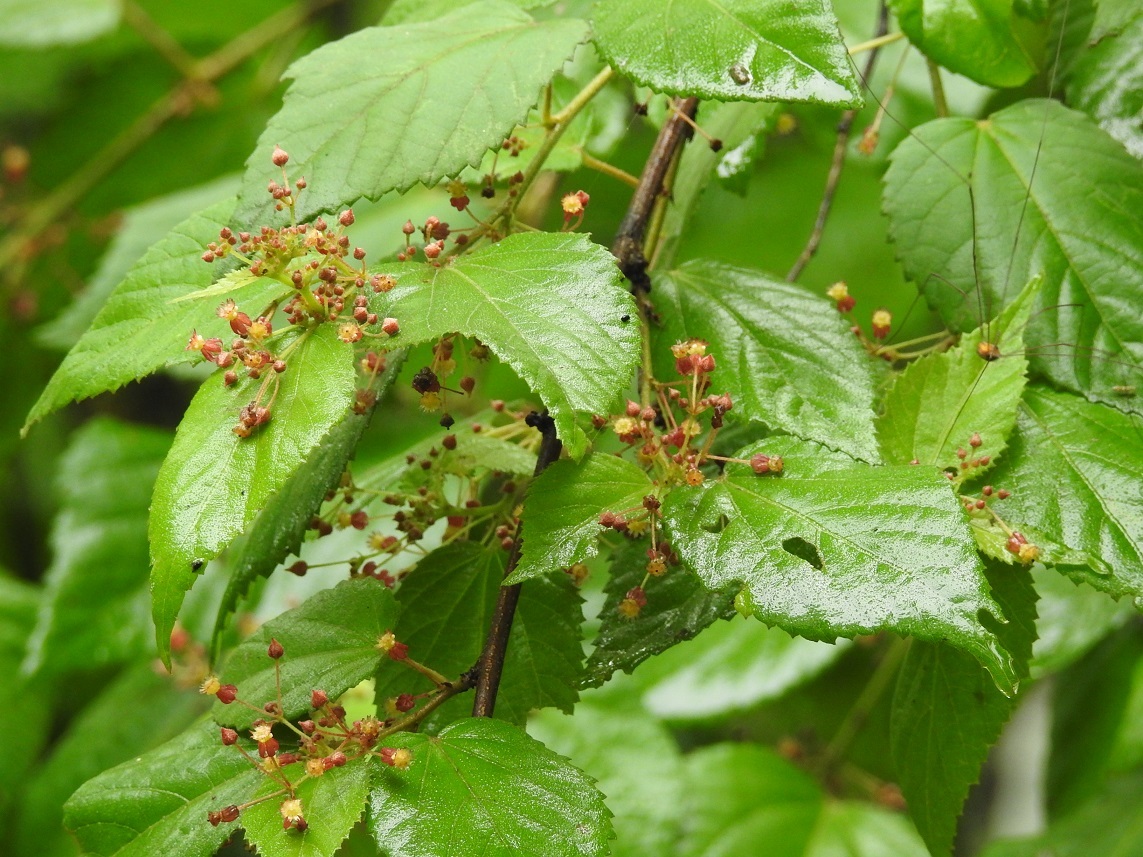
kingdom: Plantae
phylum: Tracheophyta
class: Magnoliopsida
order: Malvales
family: Malvaceae
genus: Ayenia
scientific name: Ayenia micrantha
